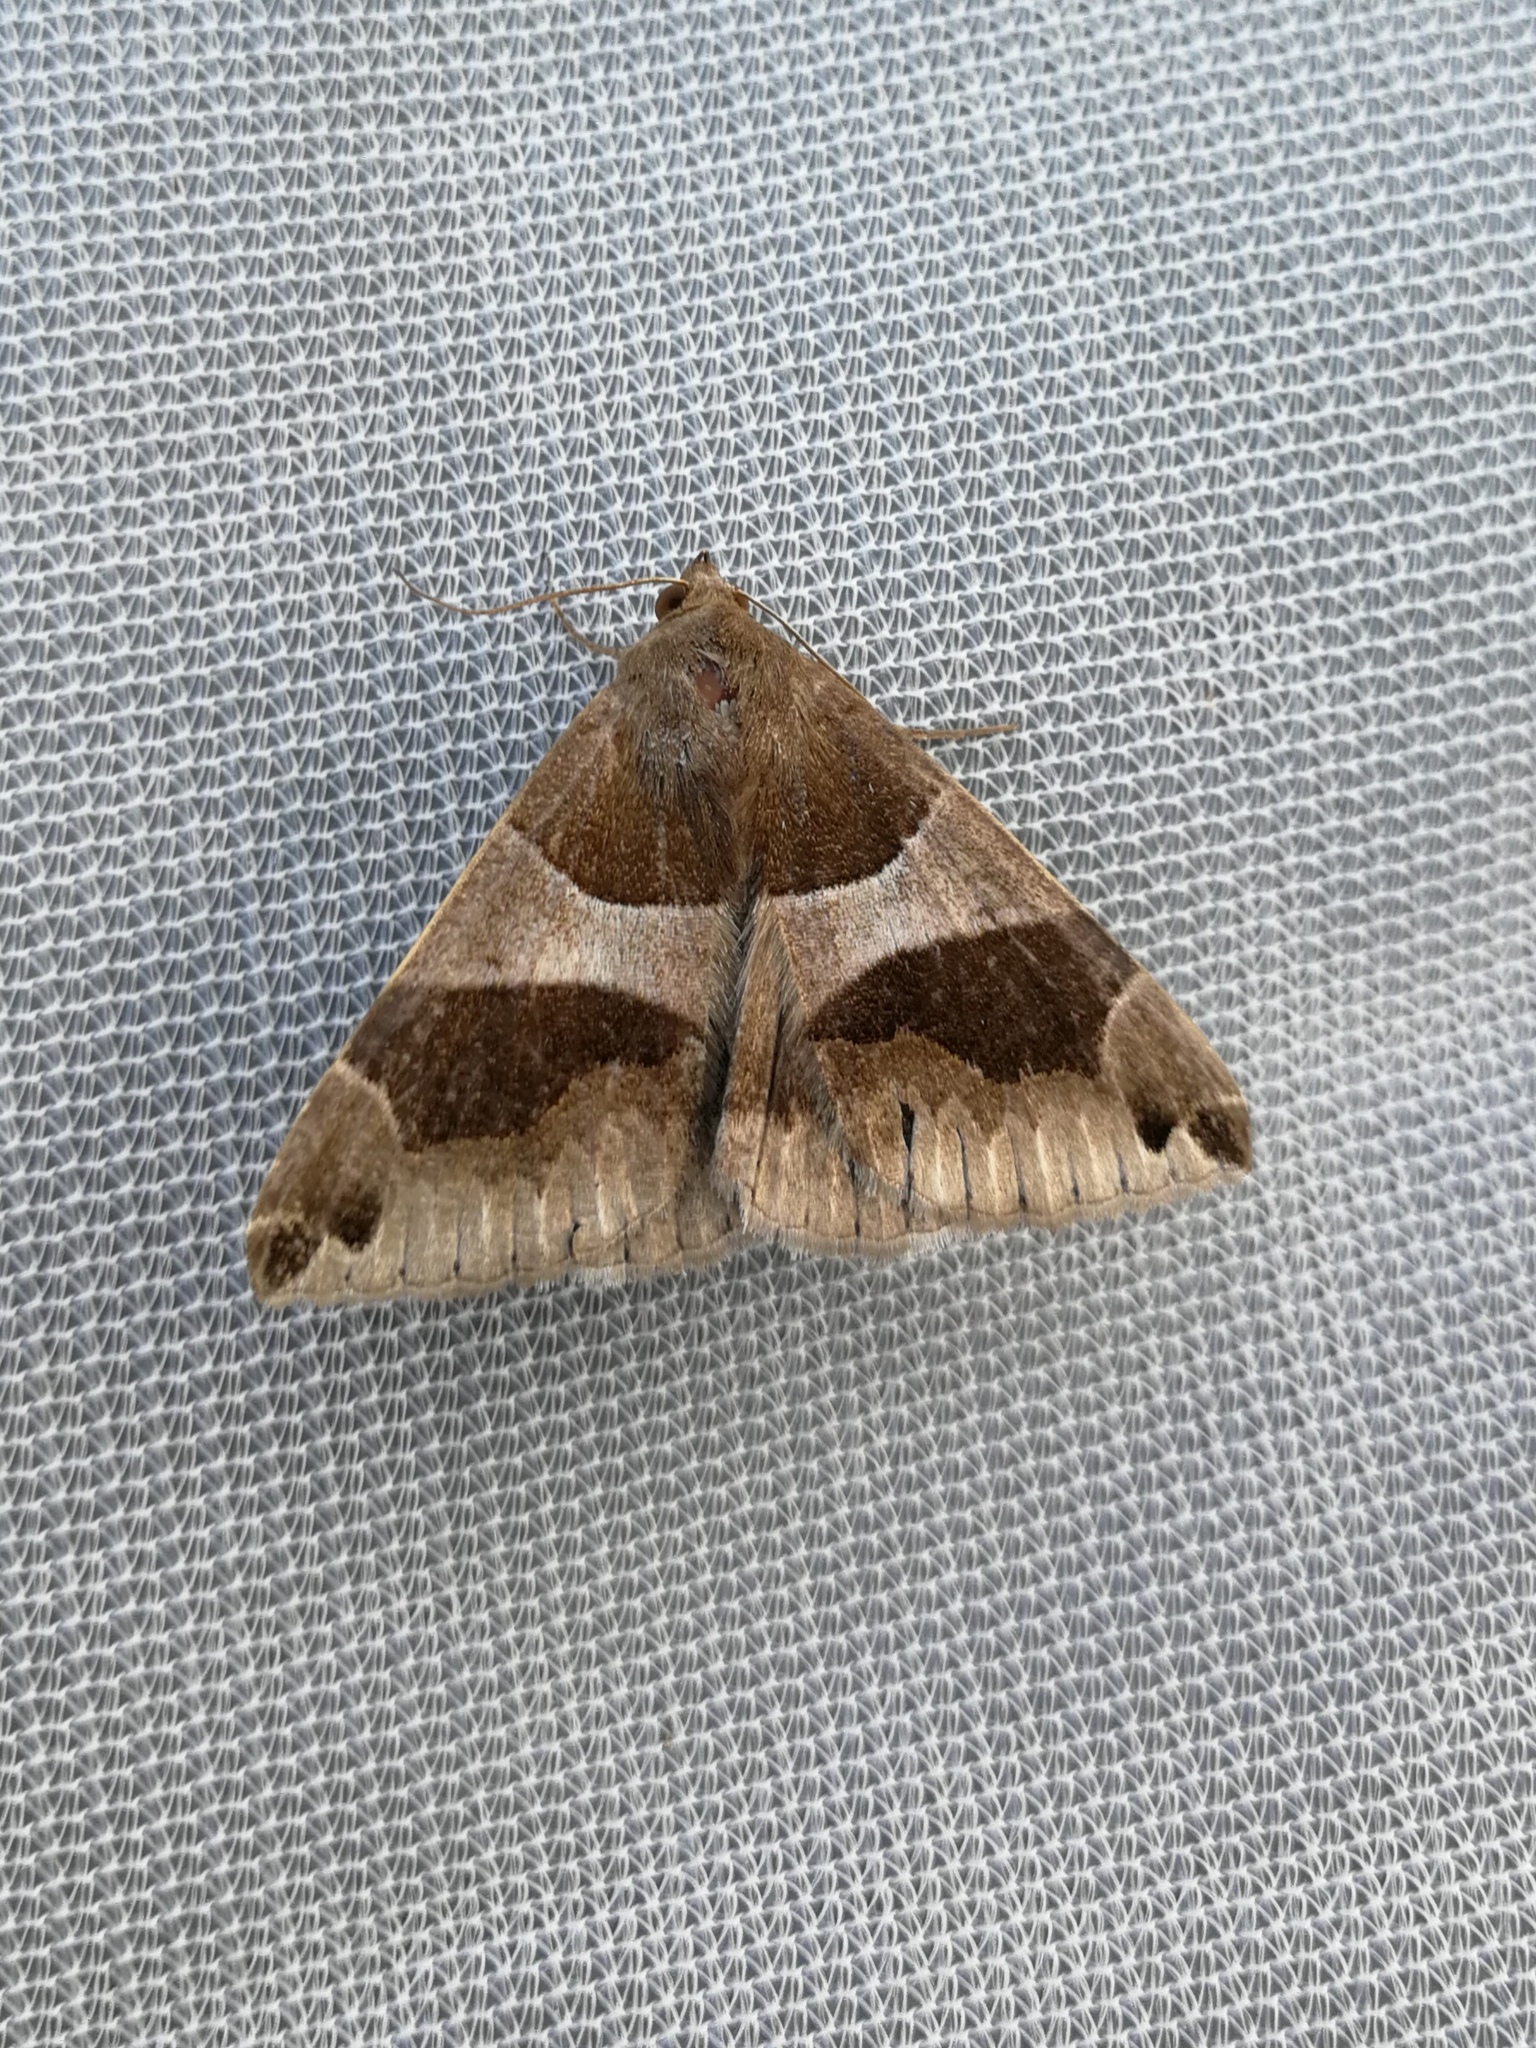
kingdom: Animalia
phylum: Arthropoda
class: Insecta
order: Lepidoptera
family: Erebidae
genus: Dysgonia
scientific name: Dysgonia algira
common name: Passenger
